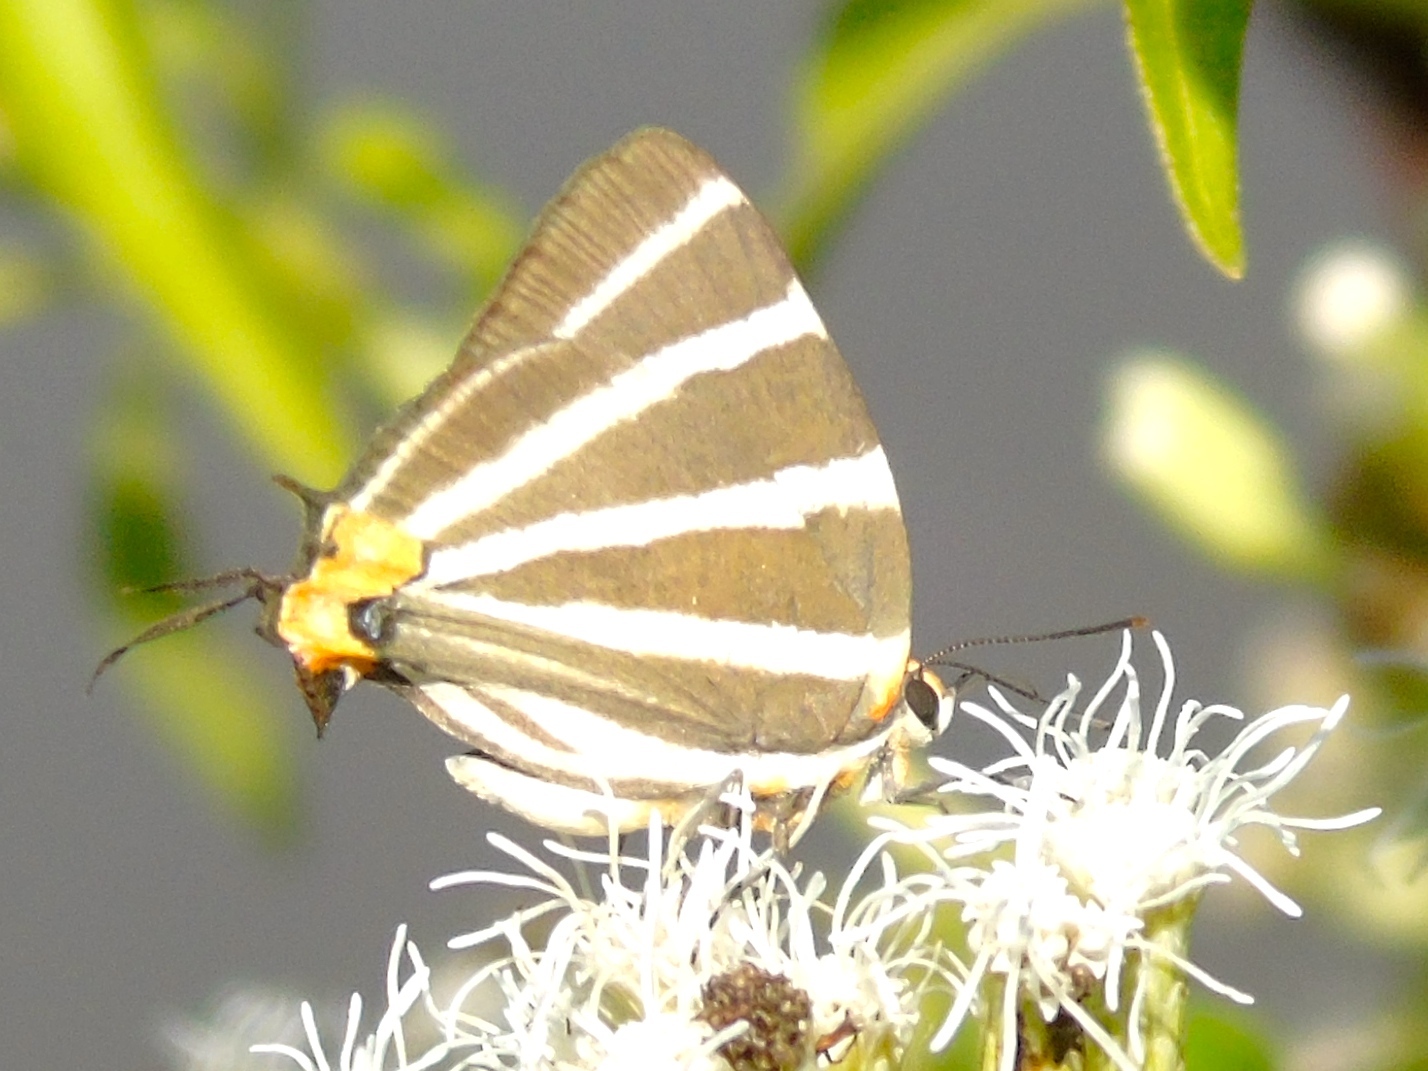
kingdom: Animalia
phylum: Arthropoda
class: Insecta
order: Lepidoptera
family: Lycaenidae
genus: Thecla
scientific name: Thecla bathildis
